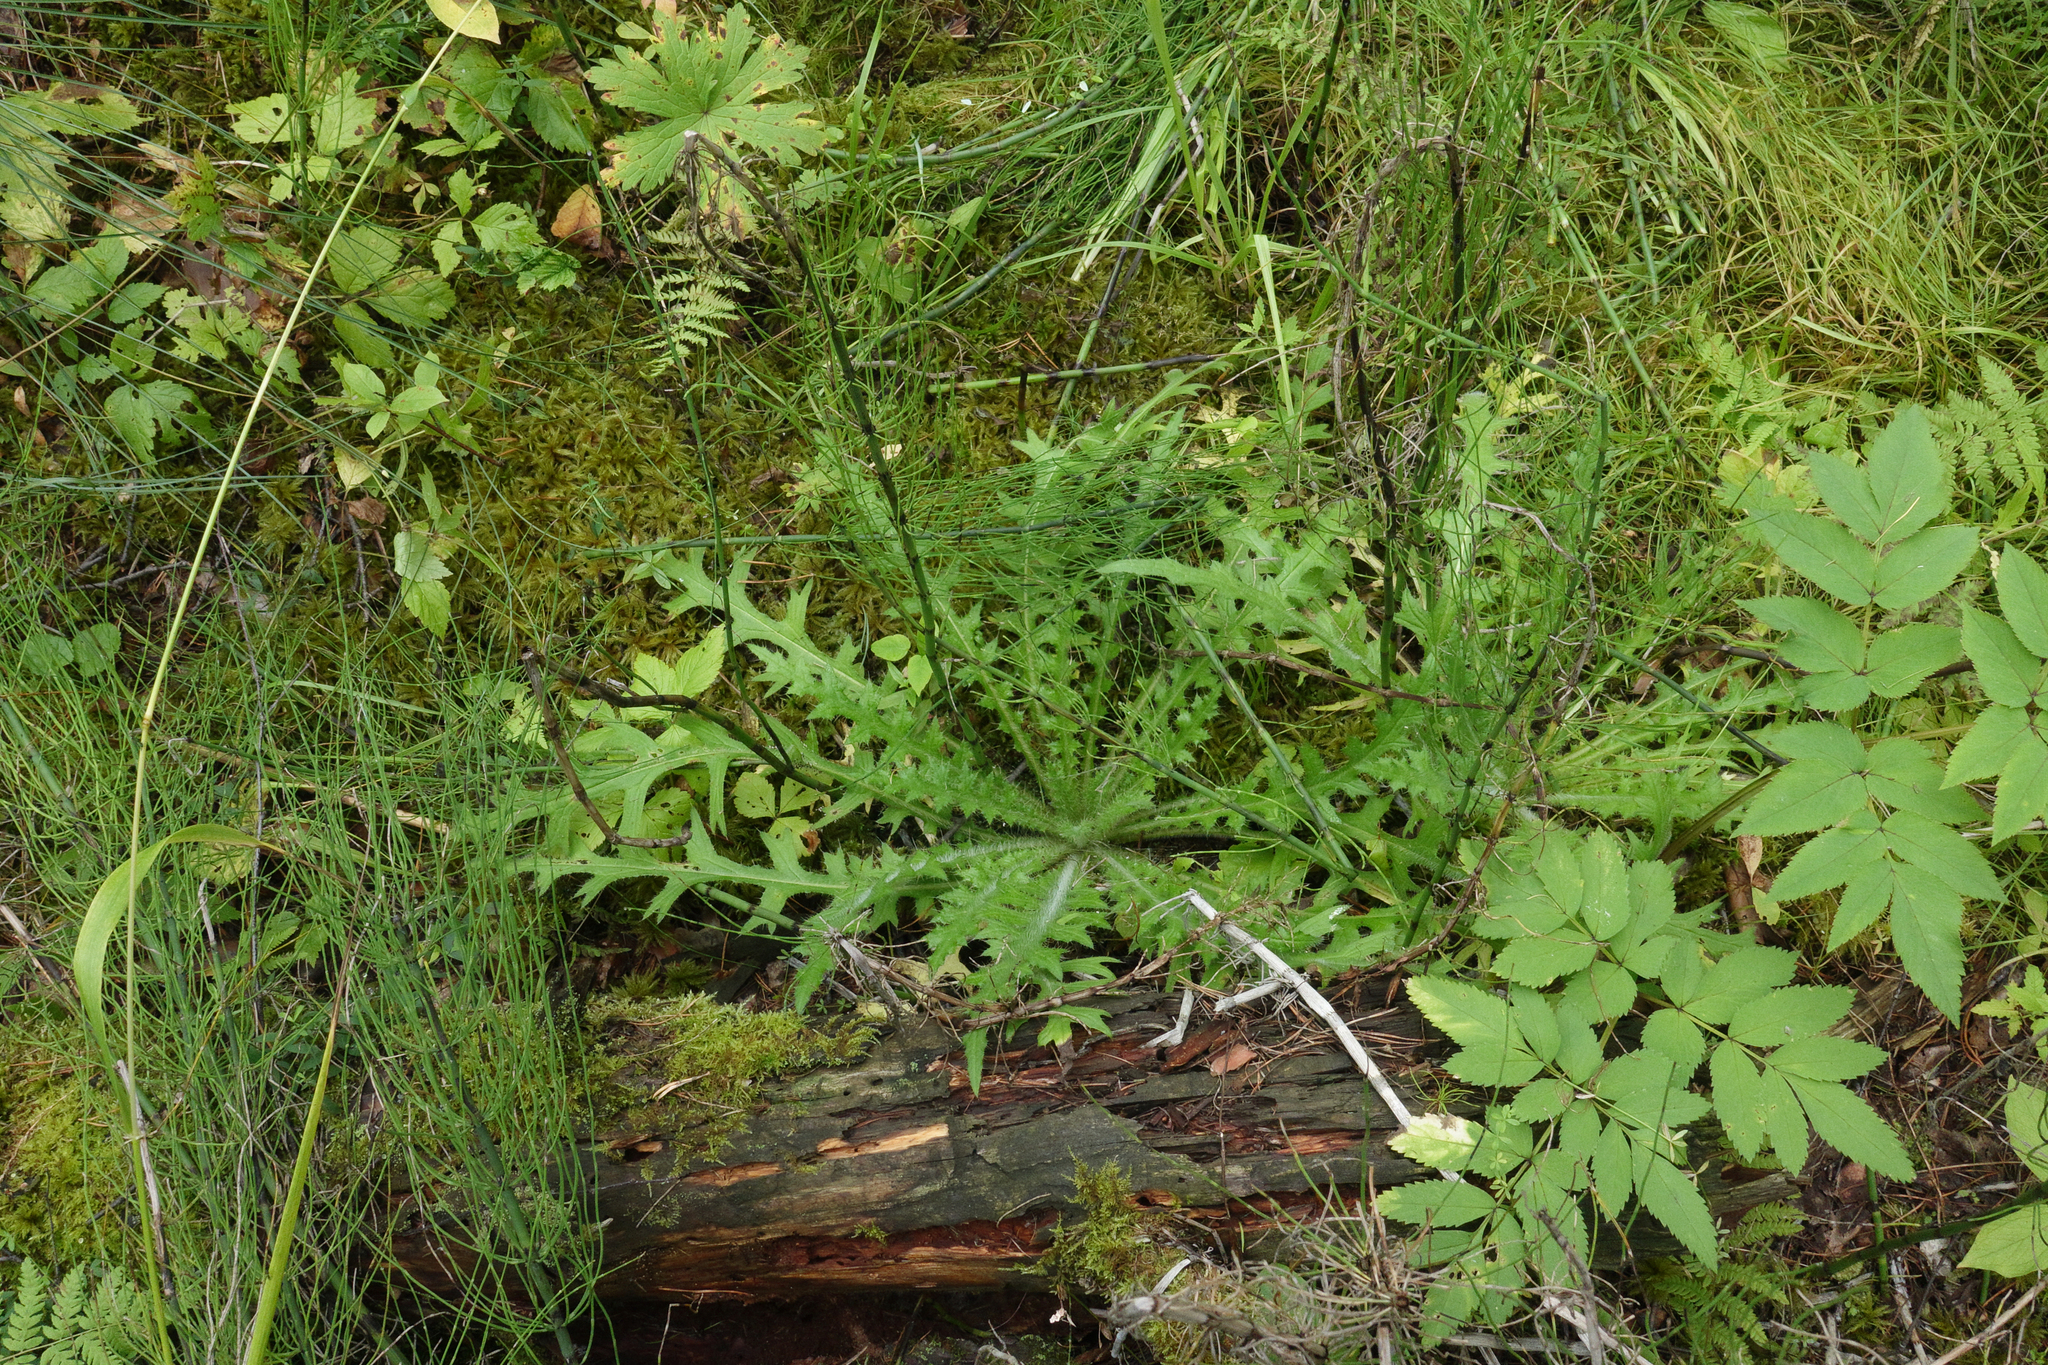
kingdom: Plantae
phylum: Tracheophyta
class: Magnoliopsida
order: Asterales
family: Asteraceae
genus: Cirsium
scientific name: Cirsium palustre
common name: Marsh thistle
